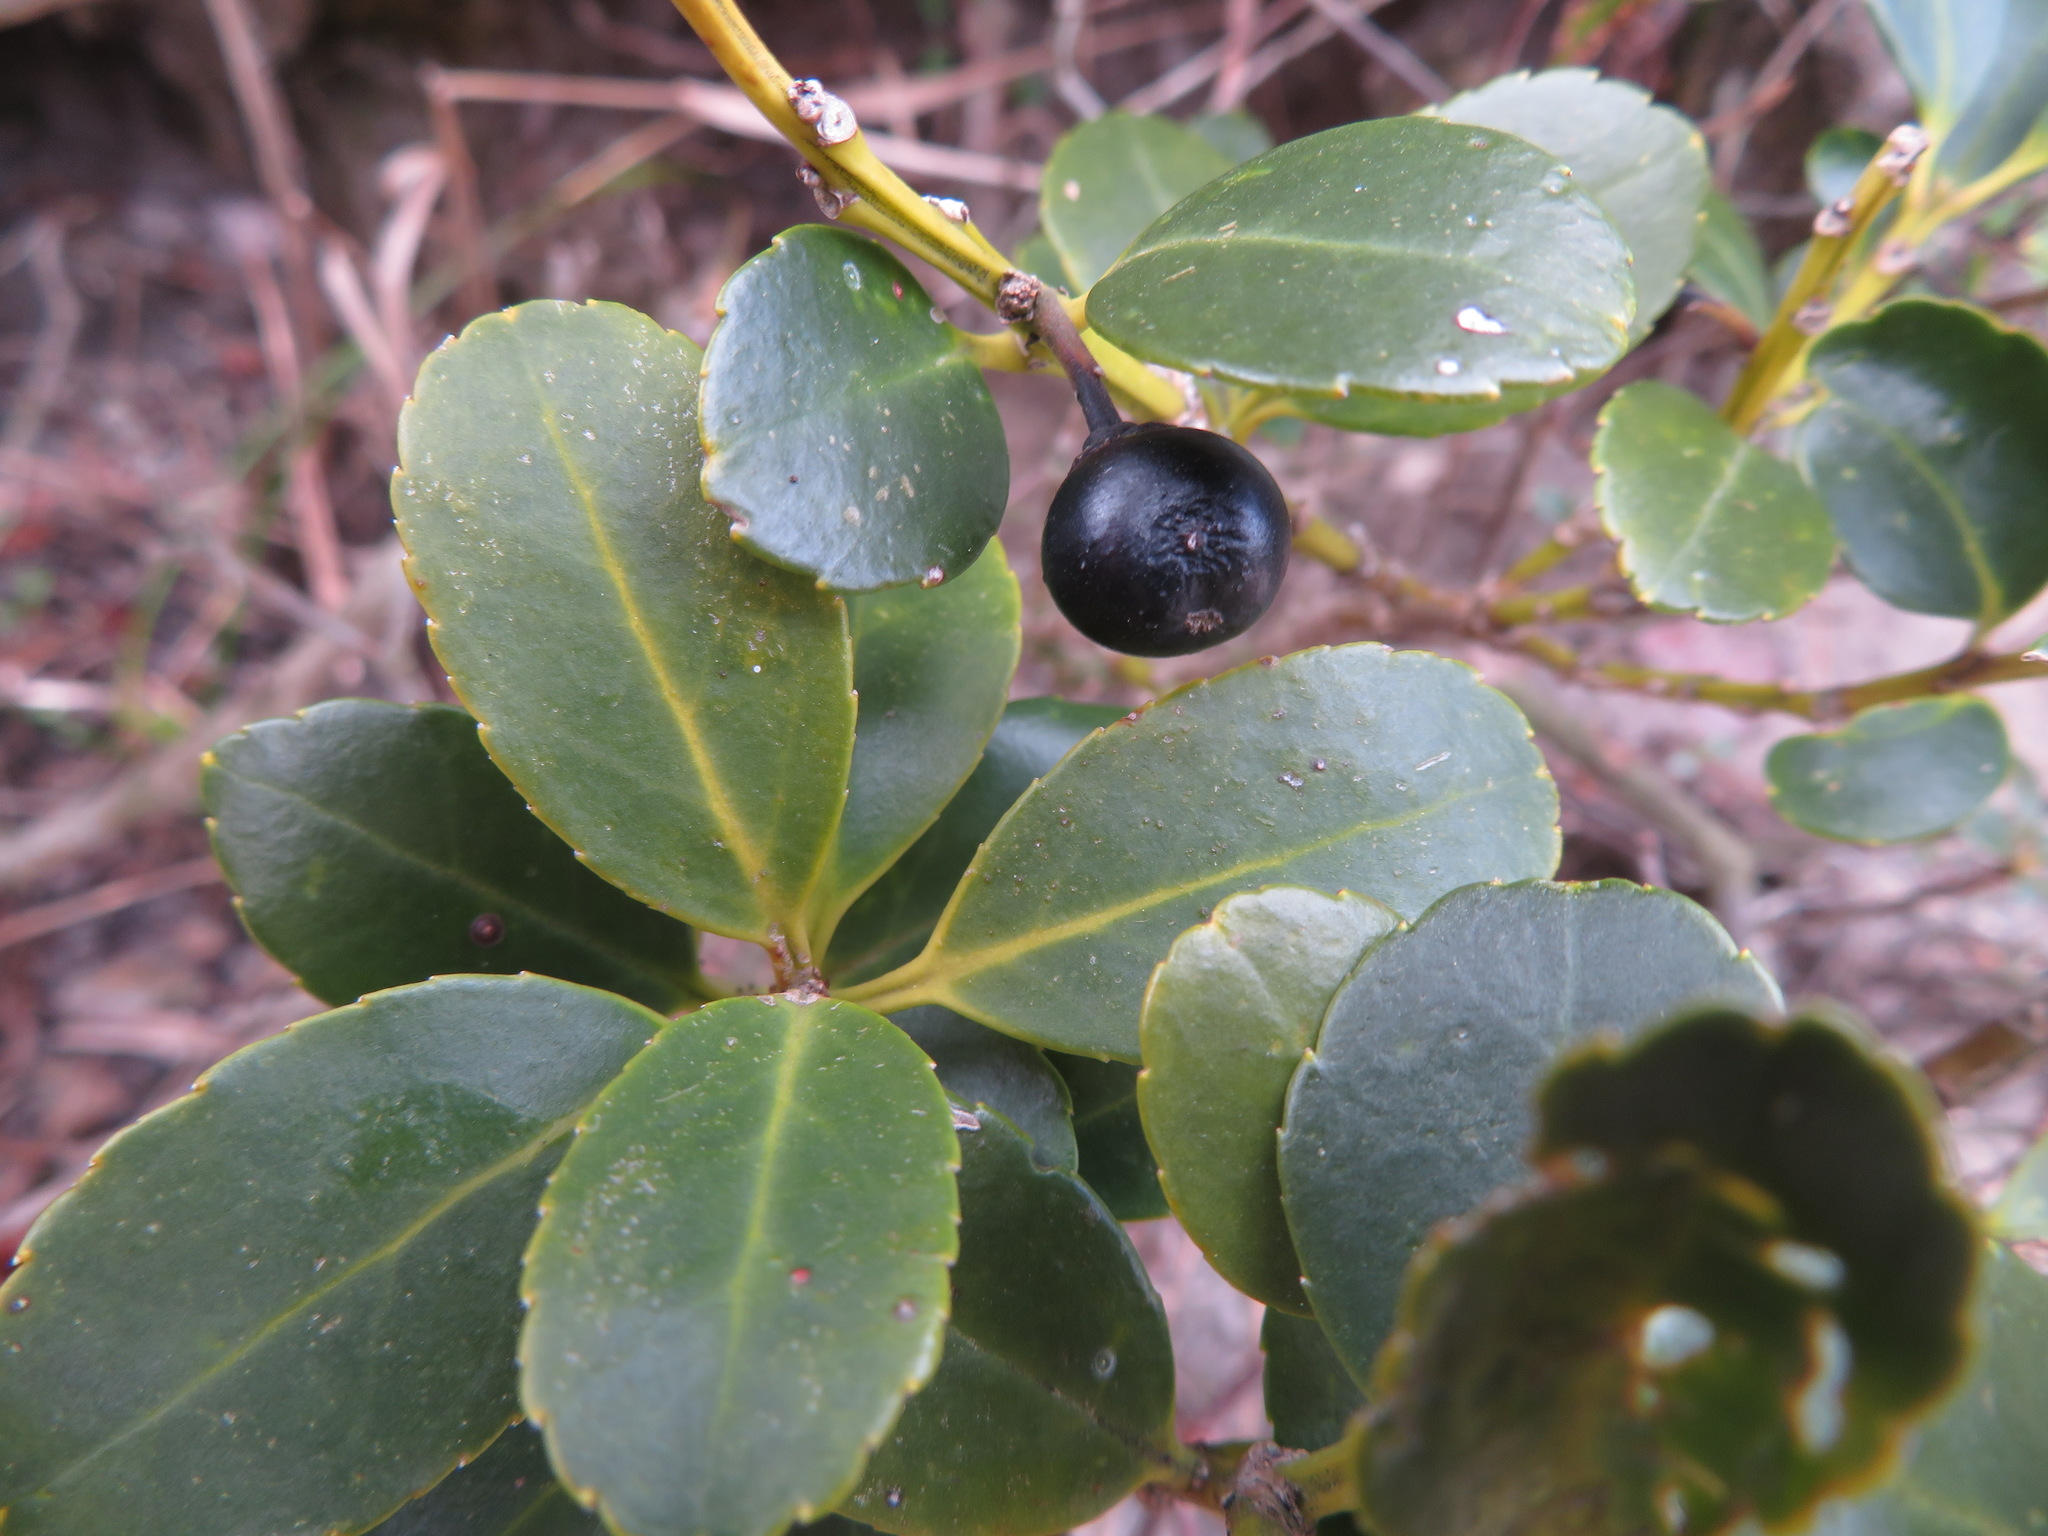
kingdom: Plantae
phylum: Tracheophyta
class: Magnoliopsida
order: Aquifoliales
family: Aquifoliaceae
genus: Ilex
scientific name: Ilex crenata
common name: Japanese holly
